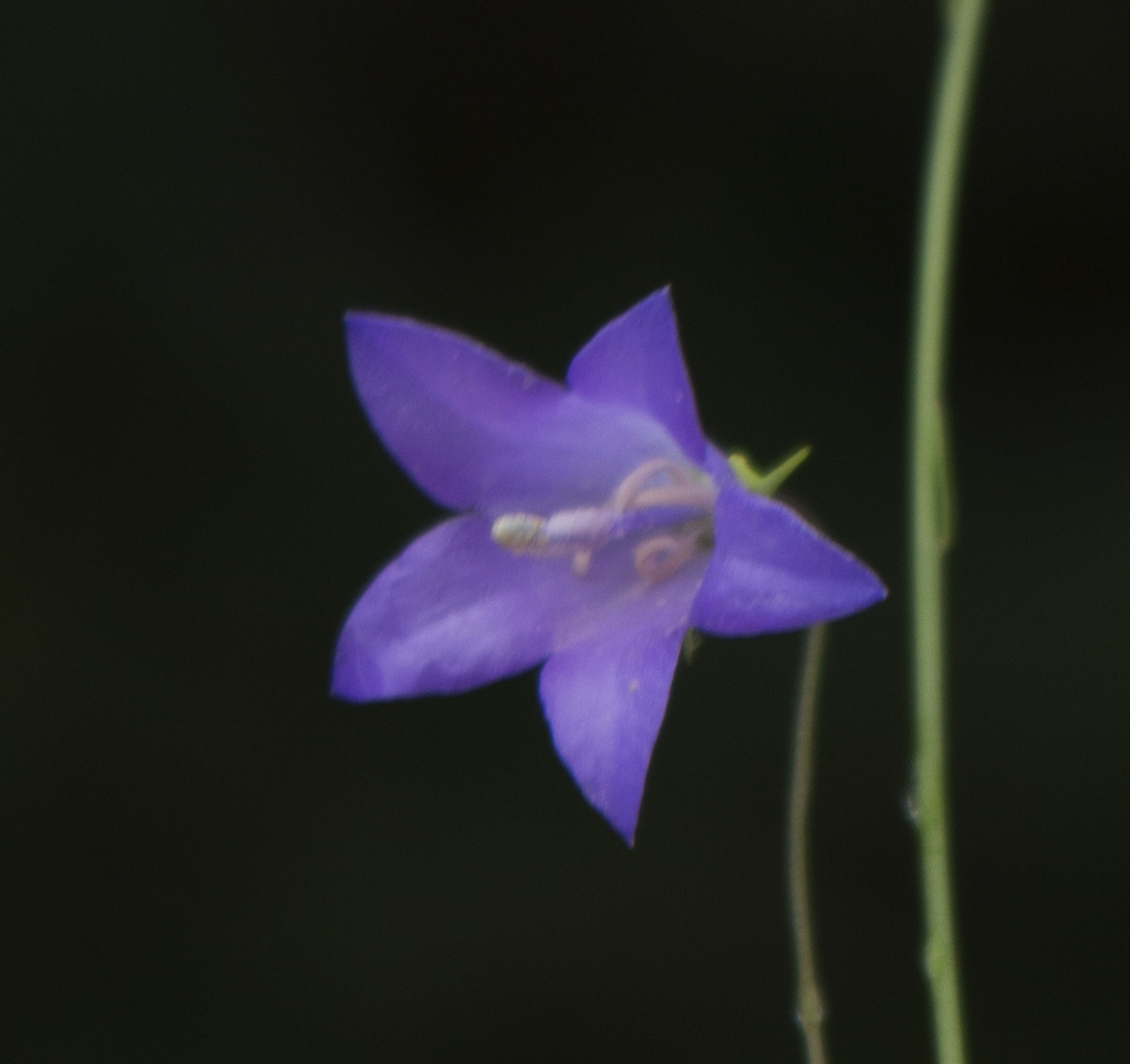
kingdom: Plantae
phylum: Tracheophyta
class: Magnoliopsida
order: Asterales
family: Campanulaceae
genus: Campanula
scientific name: Campanula intercedens
